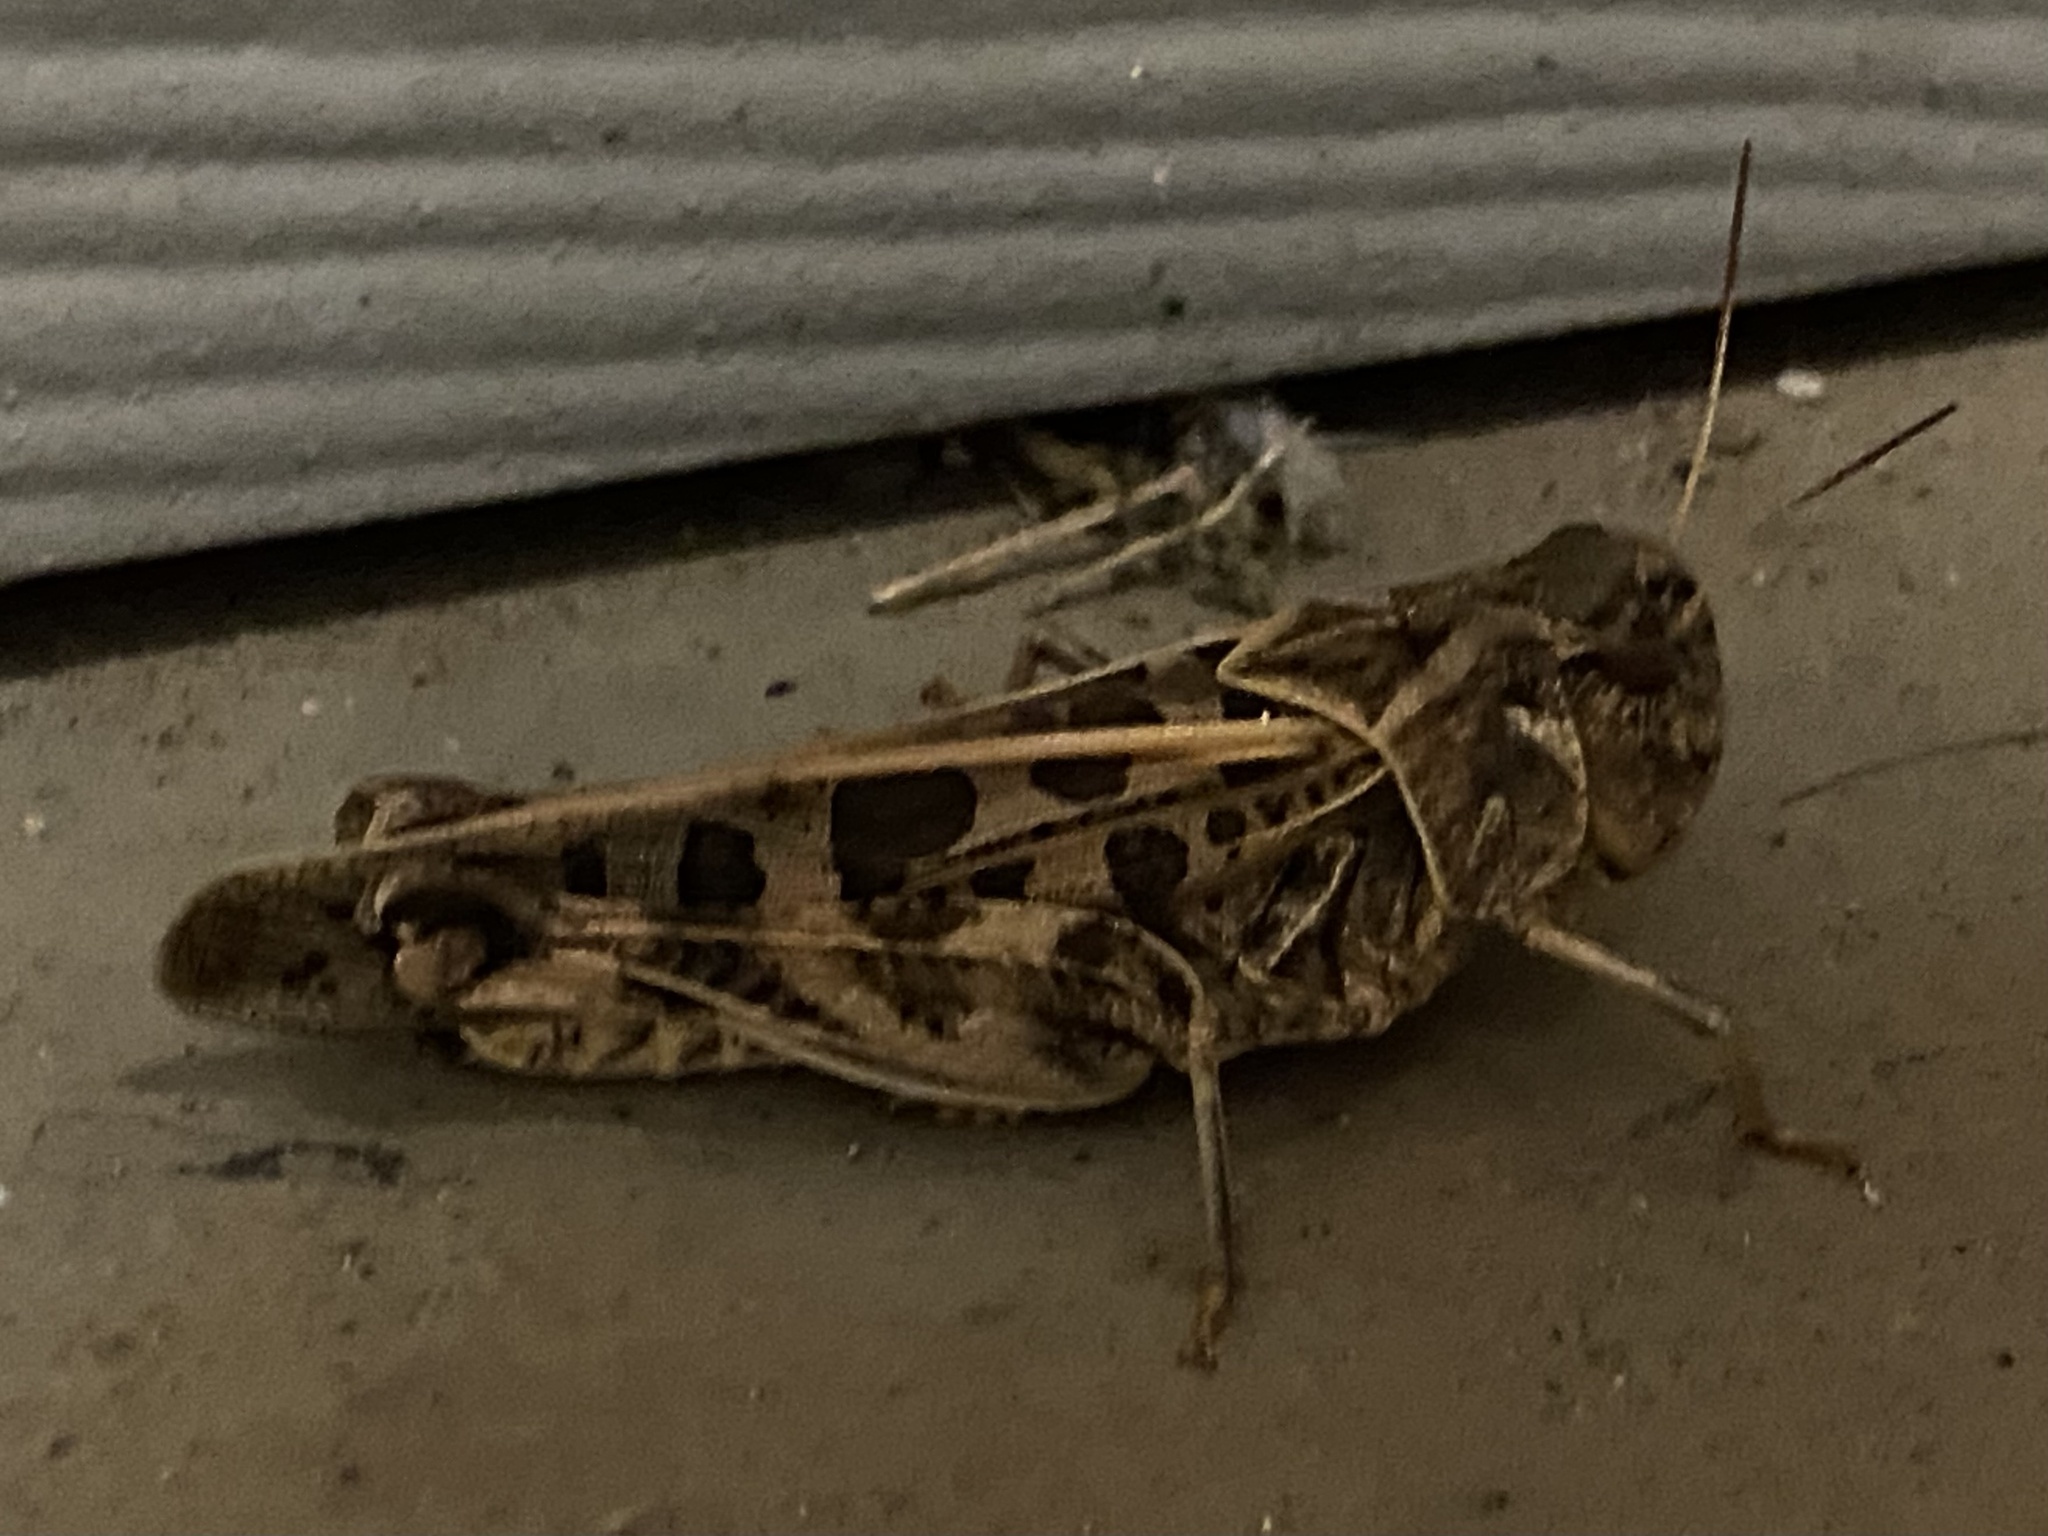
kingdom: Animalia
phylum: Arthropoda
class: Insecta
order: Orthoptera
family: Acrididae
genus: Hippiscus
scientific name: Hippiscus ocelote
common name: Wrinkled grasshopper
